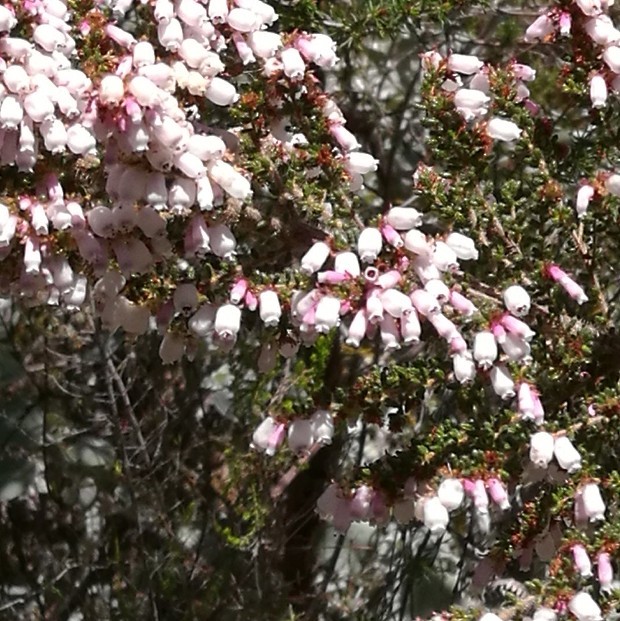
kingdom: Plantae
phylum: Tracheophyta
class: Magnoliopsida
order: Ericales
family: Ericaceae
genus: Erica
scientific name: Erica scabriuscula
